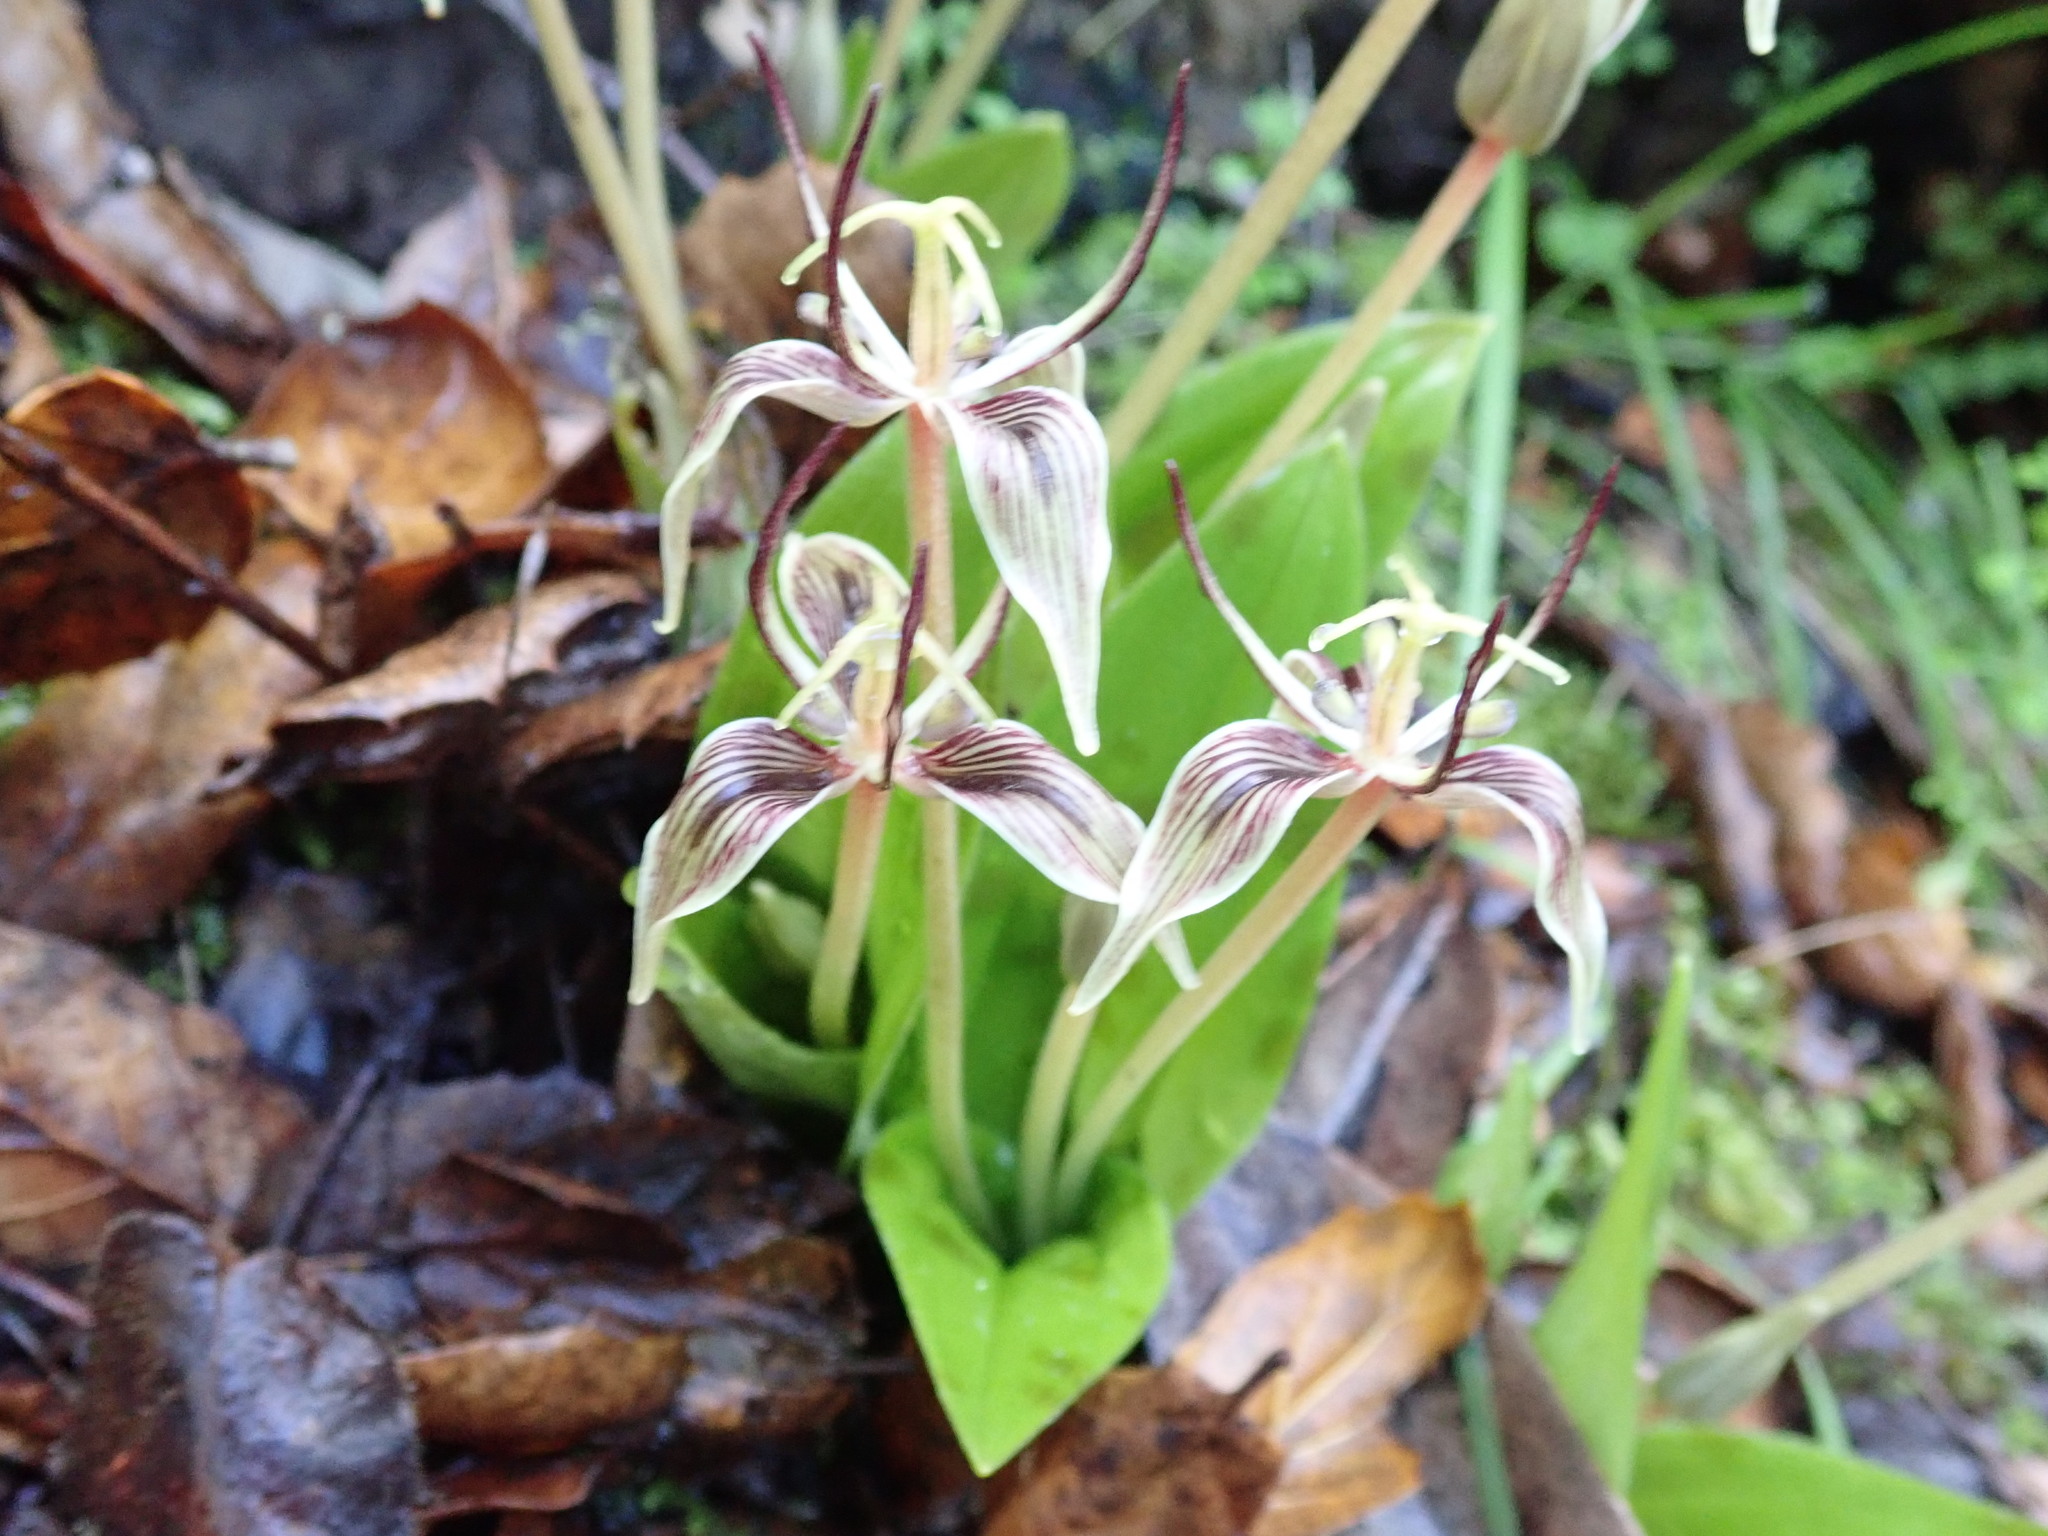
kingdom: Plantae
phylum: Tracheophyta
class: Liliopsida
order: Liliales
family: Liliaceae
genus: Scoliopus
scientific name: Scoliopus bigelovii
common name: Foetid adder's-tongue
